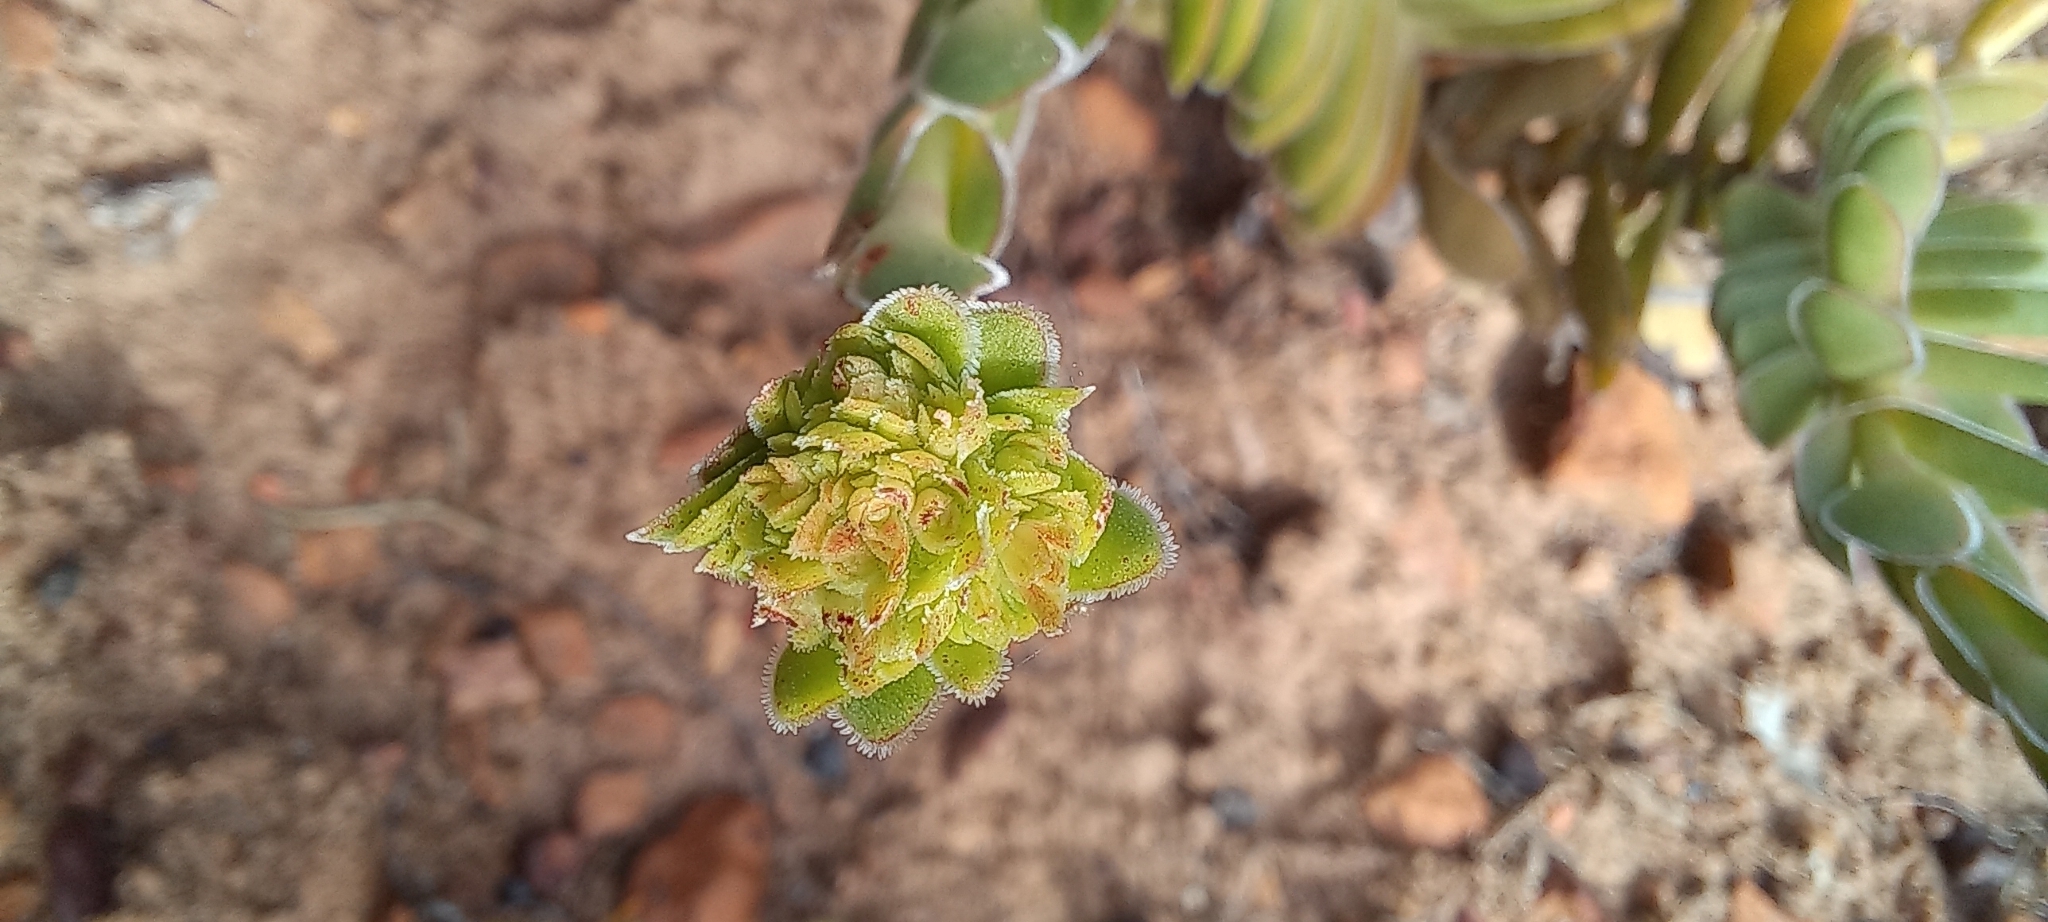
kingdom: Plantae
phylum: Tracheophyta
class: Magnoliopsida
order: Saxifragales
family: Crassulaceae
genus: Crassula
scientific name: Crassula ciliata
